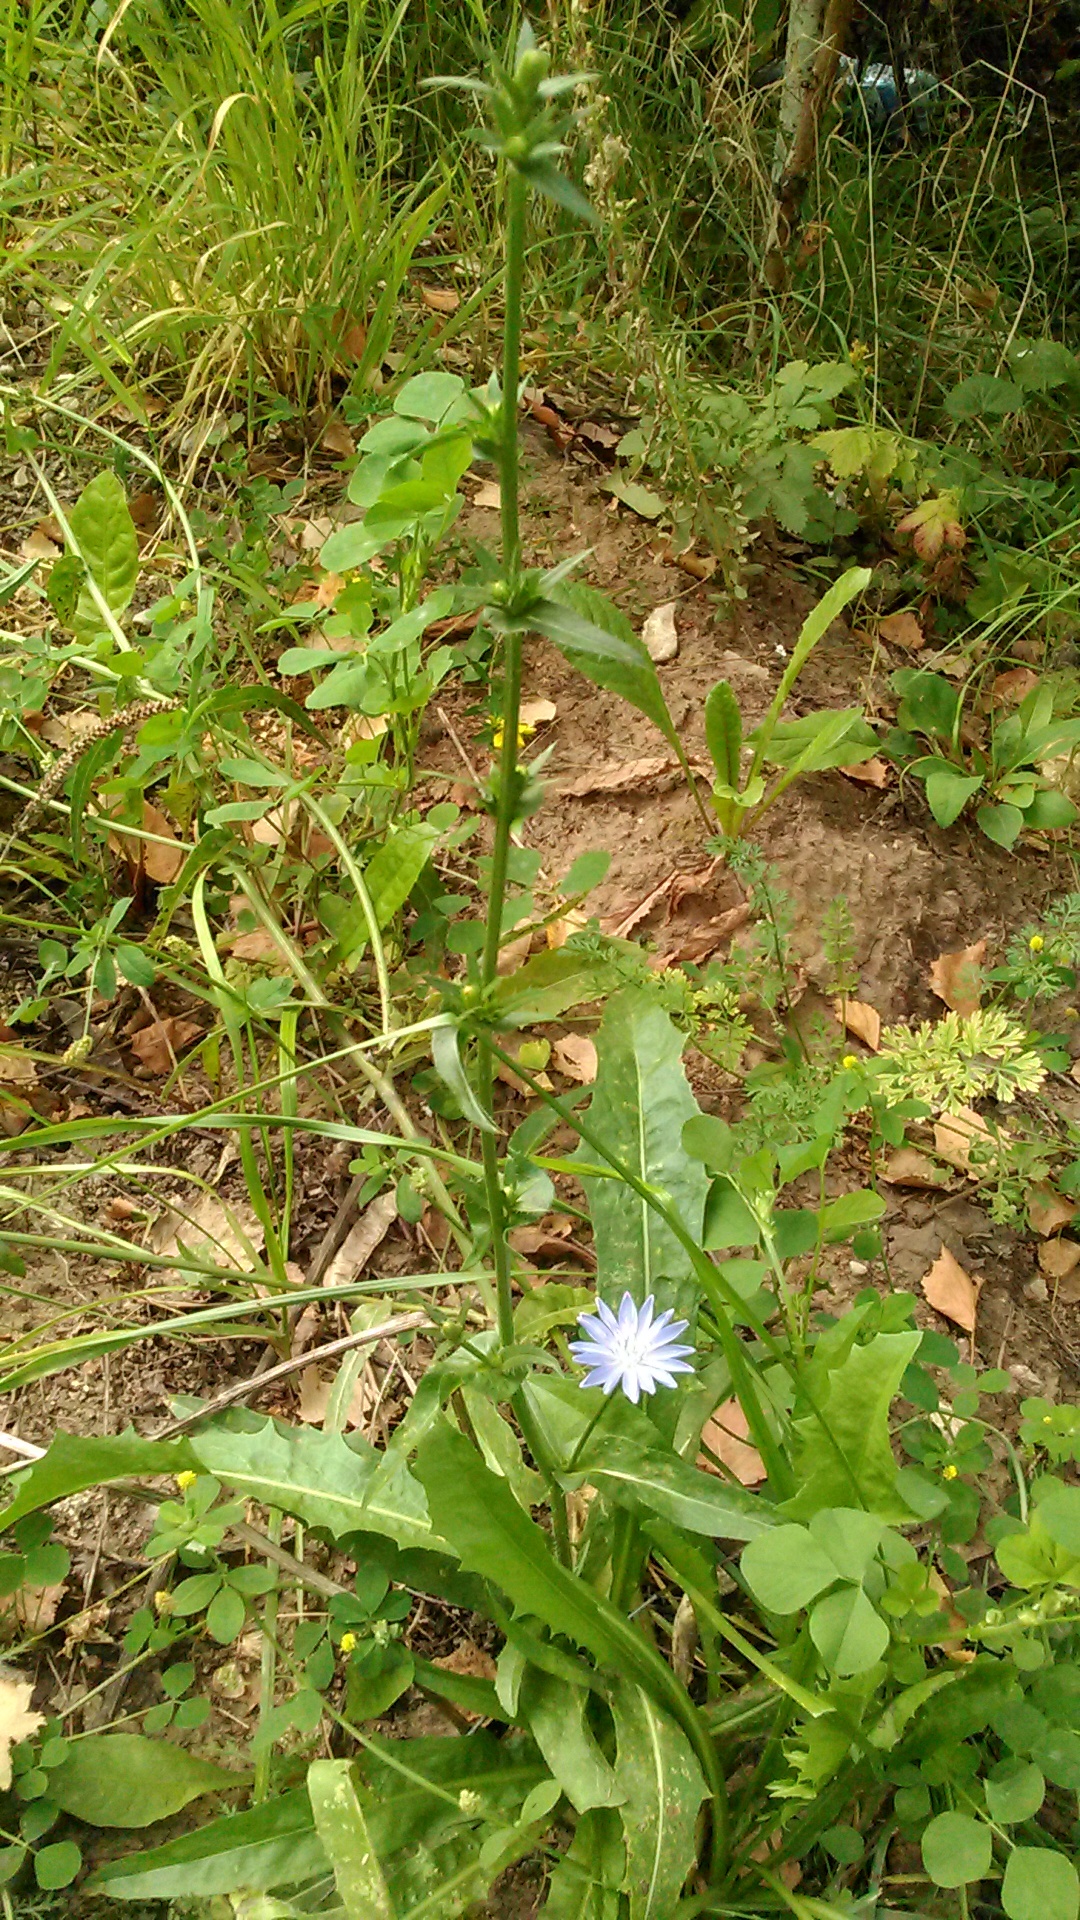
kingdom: Plantae
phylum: Tracheophyta
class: Magnoliopsida
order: Asterales
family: Asteraceae
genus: Cichorium
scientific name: Cichorium intybus
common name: Chicory
